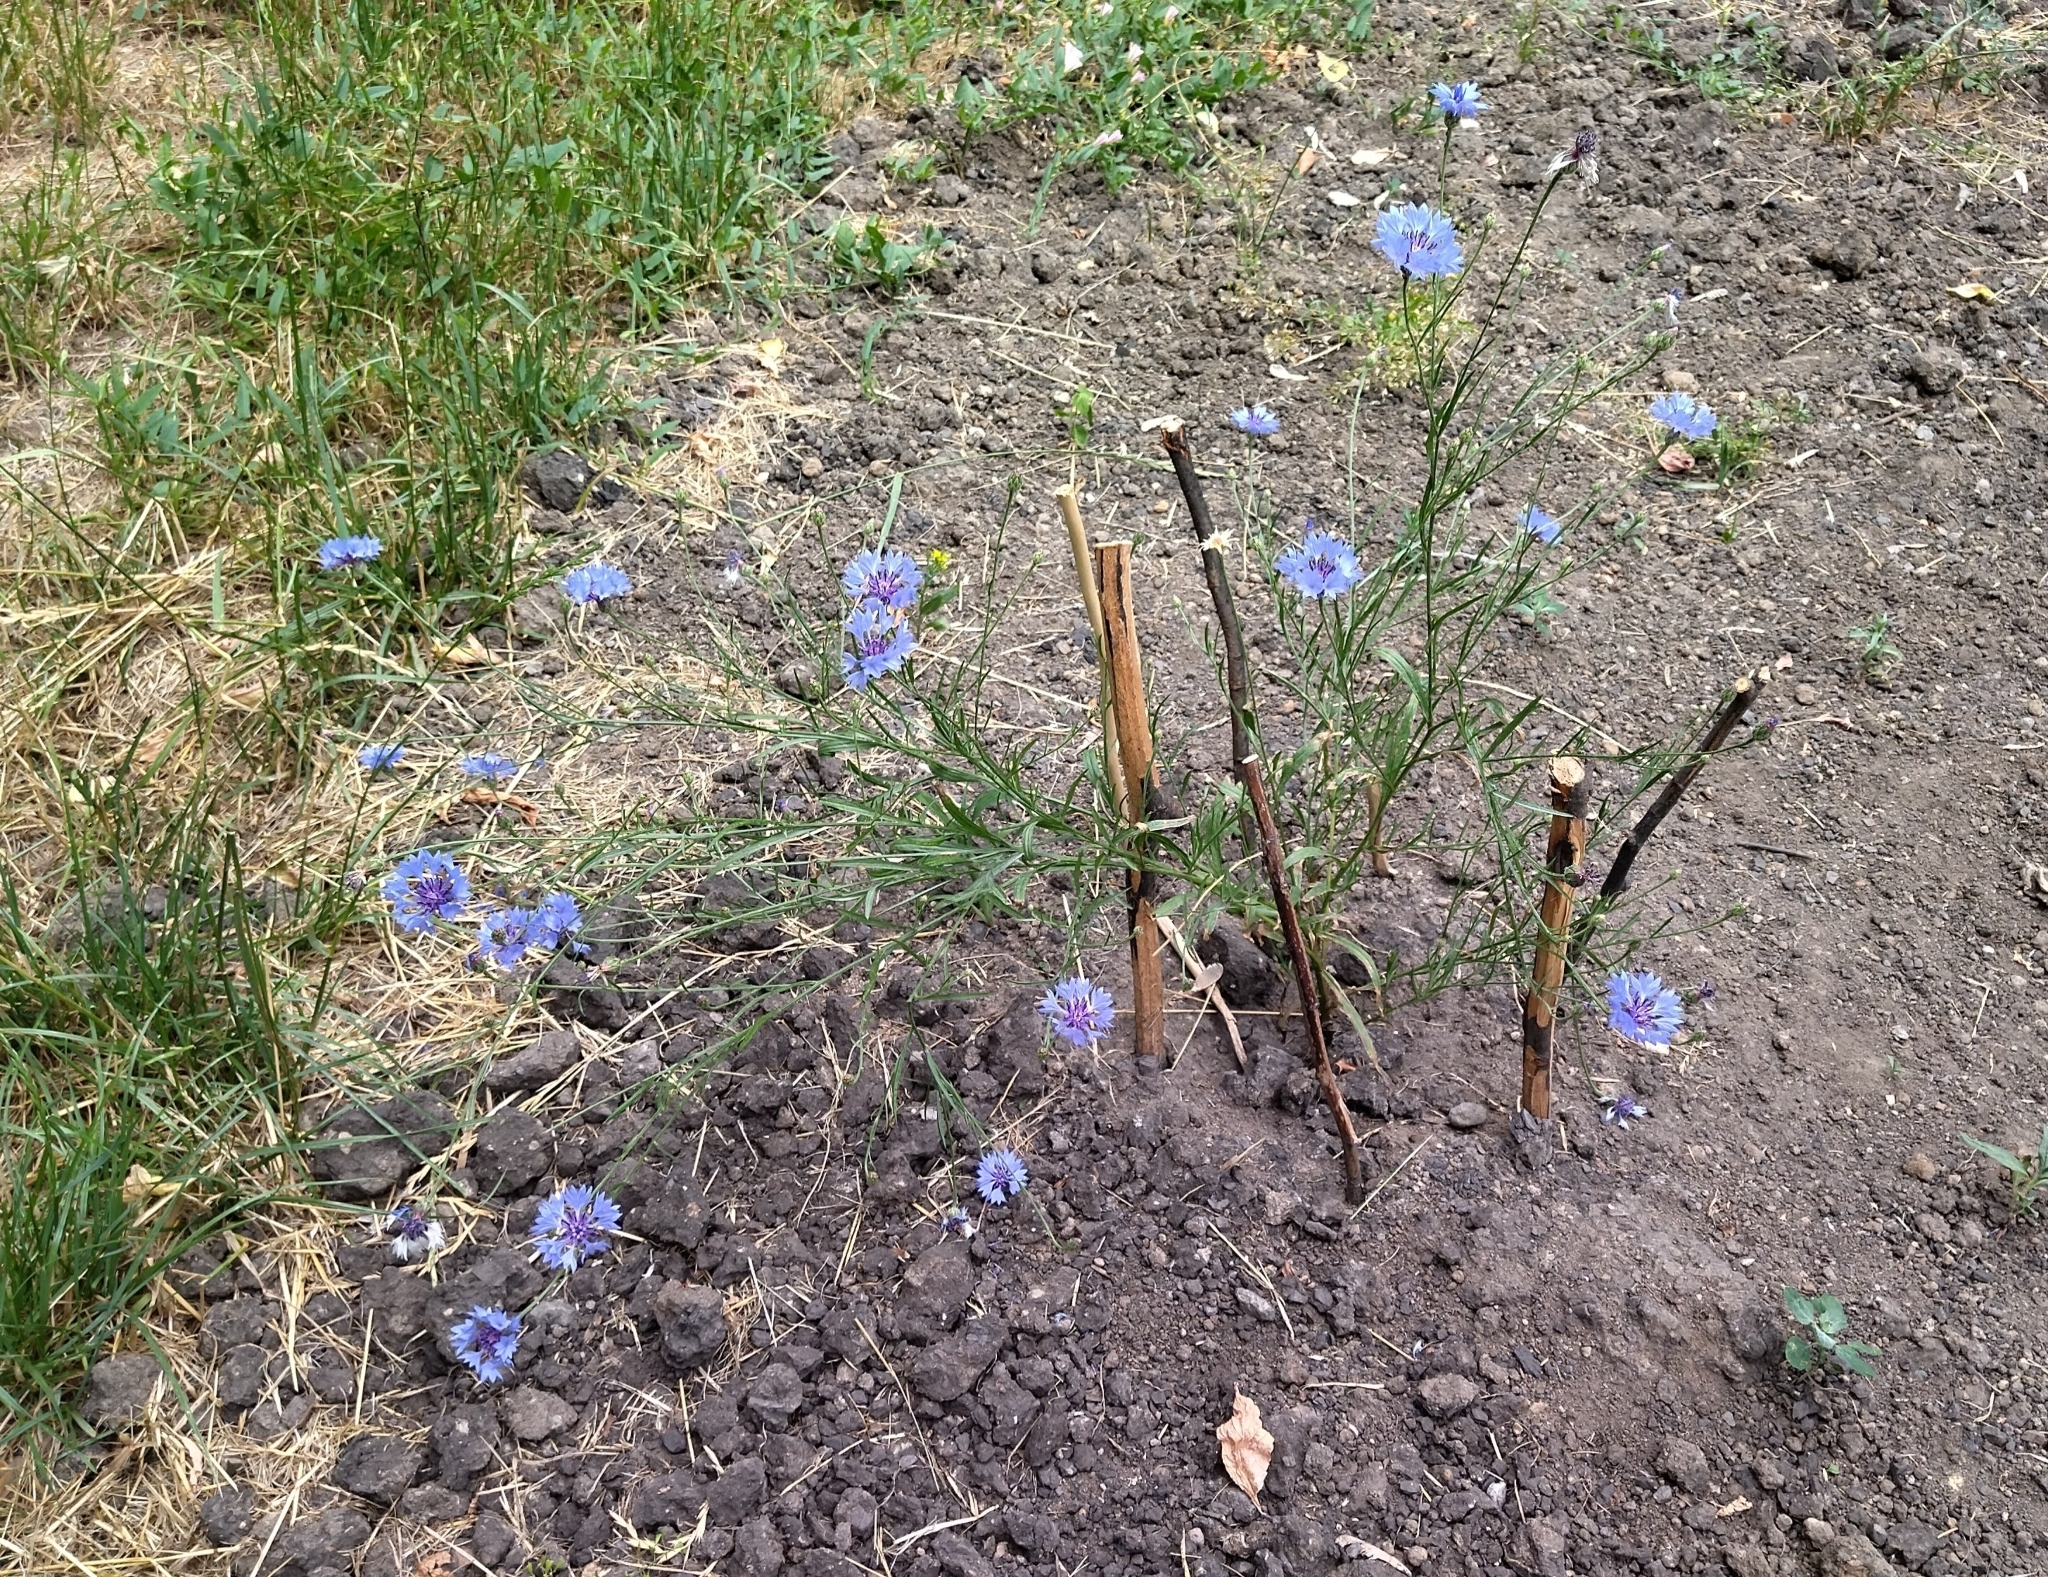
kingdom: Plantae
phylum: Tracheophyta
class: Magnoliopsida
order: Asterales
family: Asteraceae
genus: Centaurea
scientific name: Centaurea cyanus
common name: Cornflower
